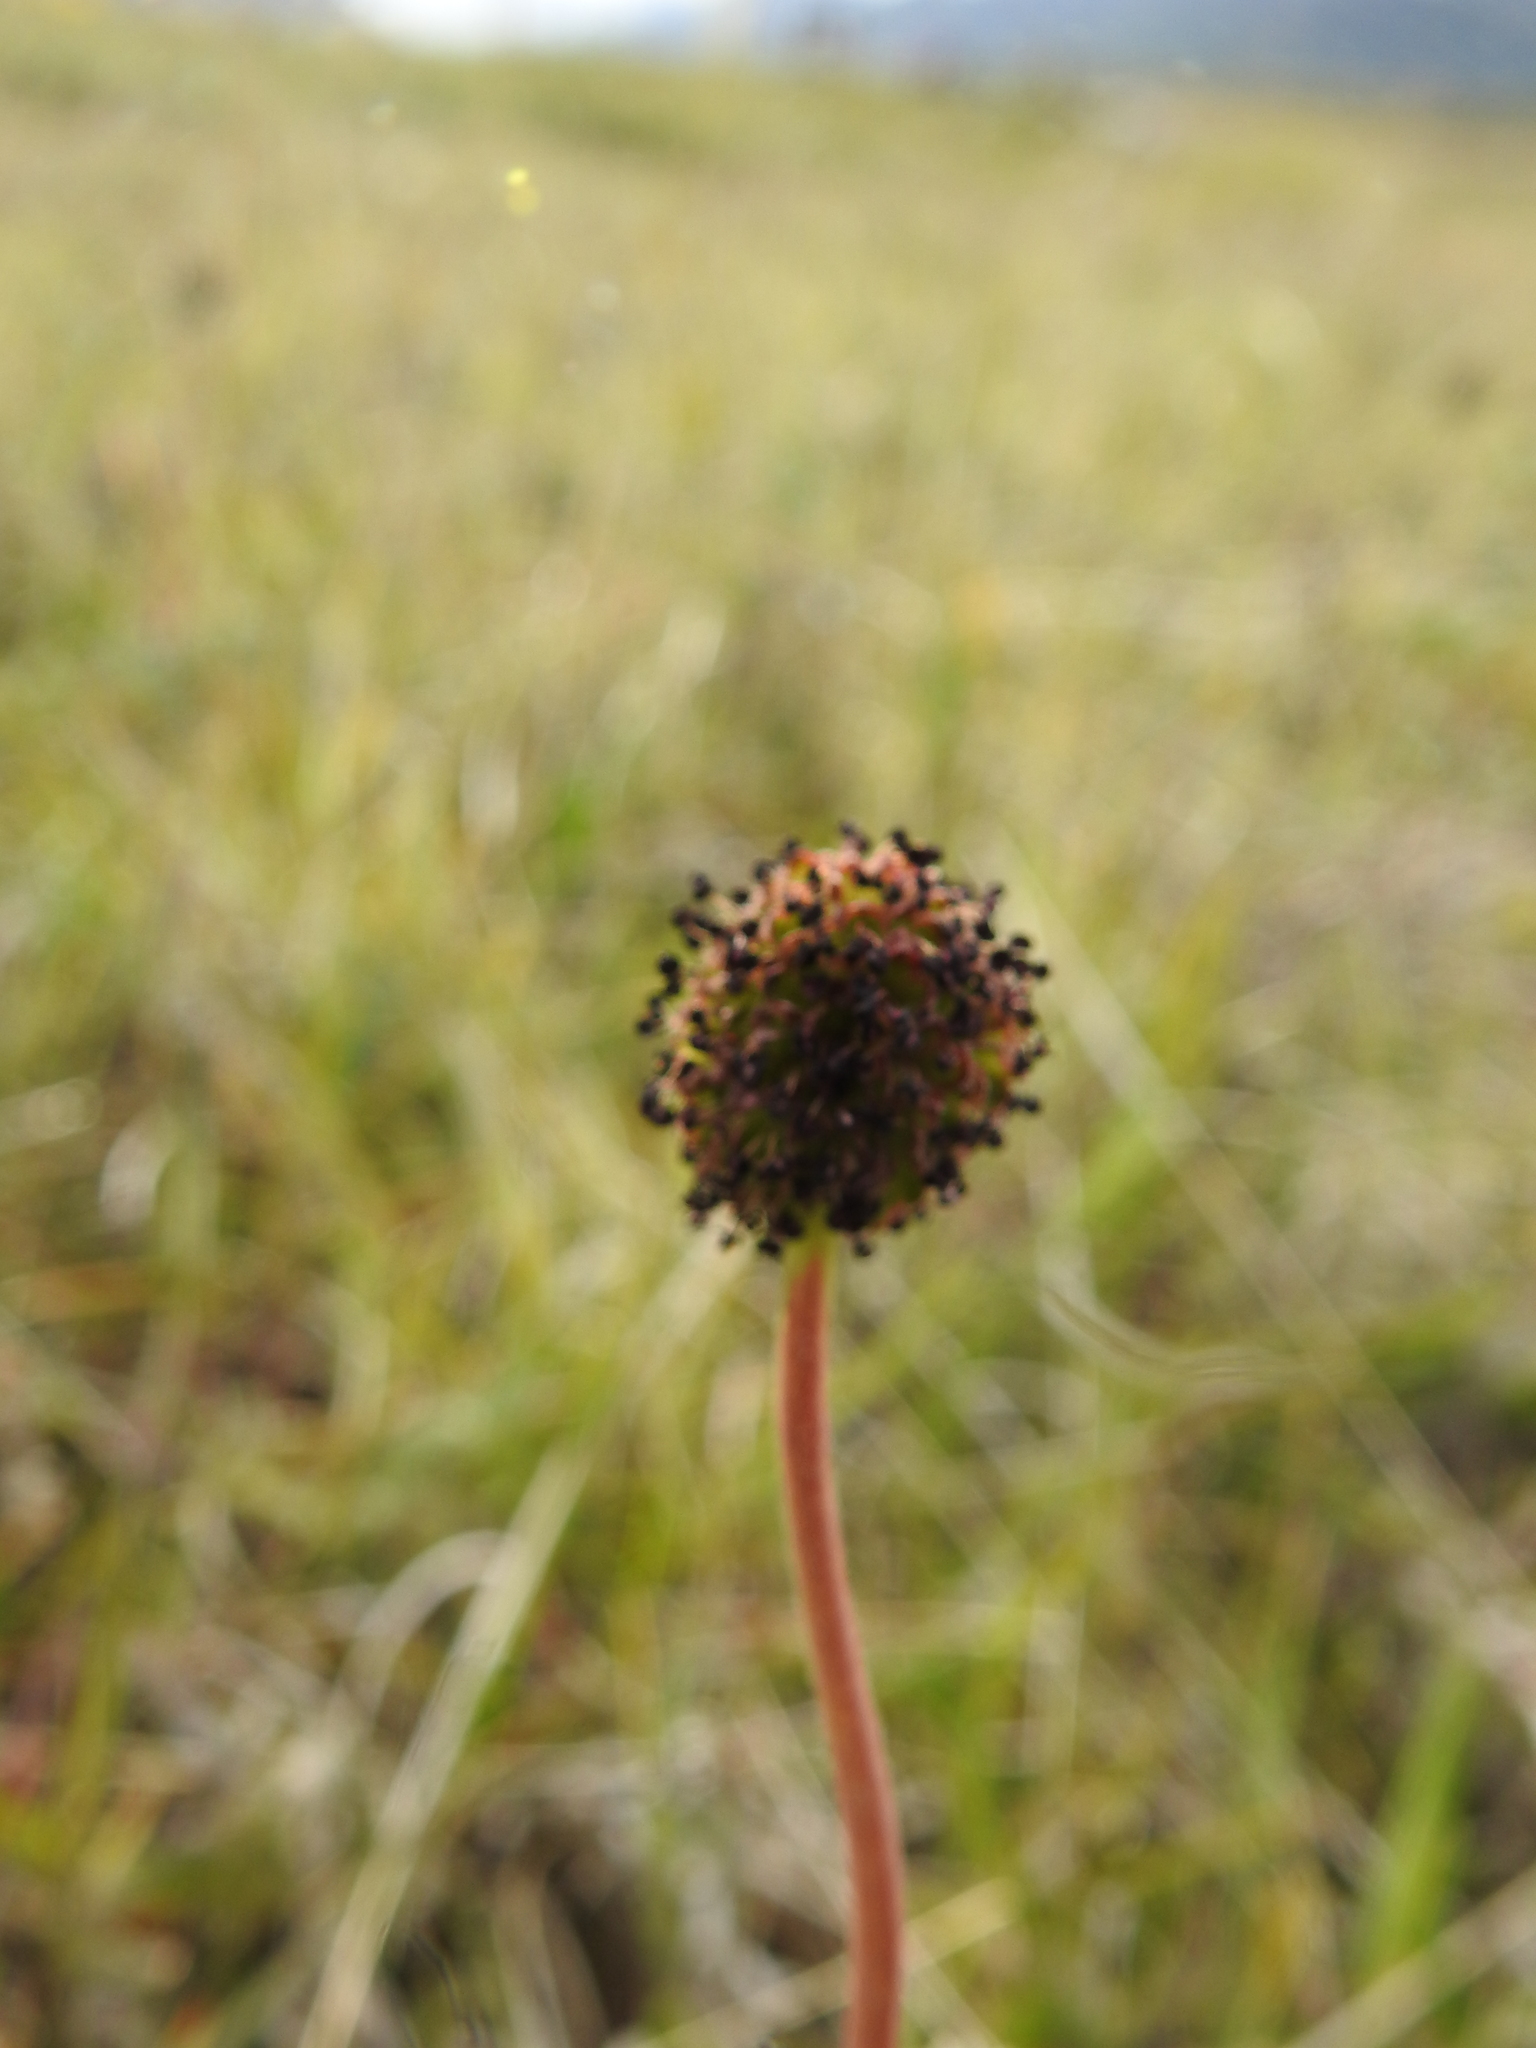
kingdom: Plantae
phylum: Tracheophyta
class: Magnoliopsida
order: Rosales
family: Rosaceae
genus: Acaena
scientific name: Acaena magellanica
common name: New zealand burr
